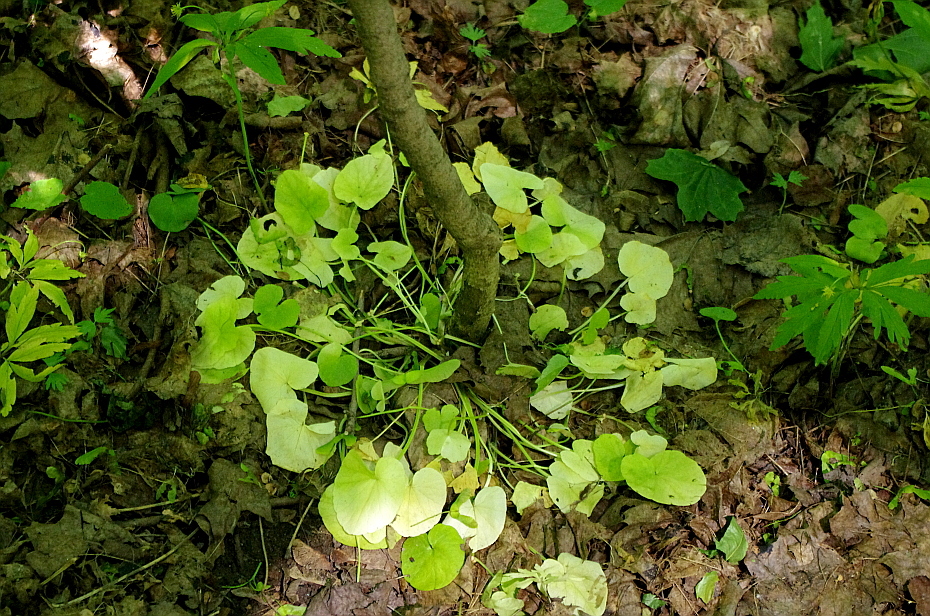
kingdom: Plantae
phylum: Tracheophyta
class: Magnoliopsida
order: Ranunculales
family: Ranunculaceae
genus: Ficaria
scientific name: Ficaria verna
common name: Lesser celandine
